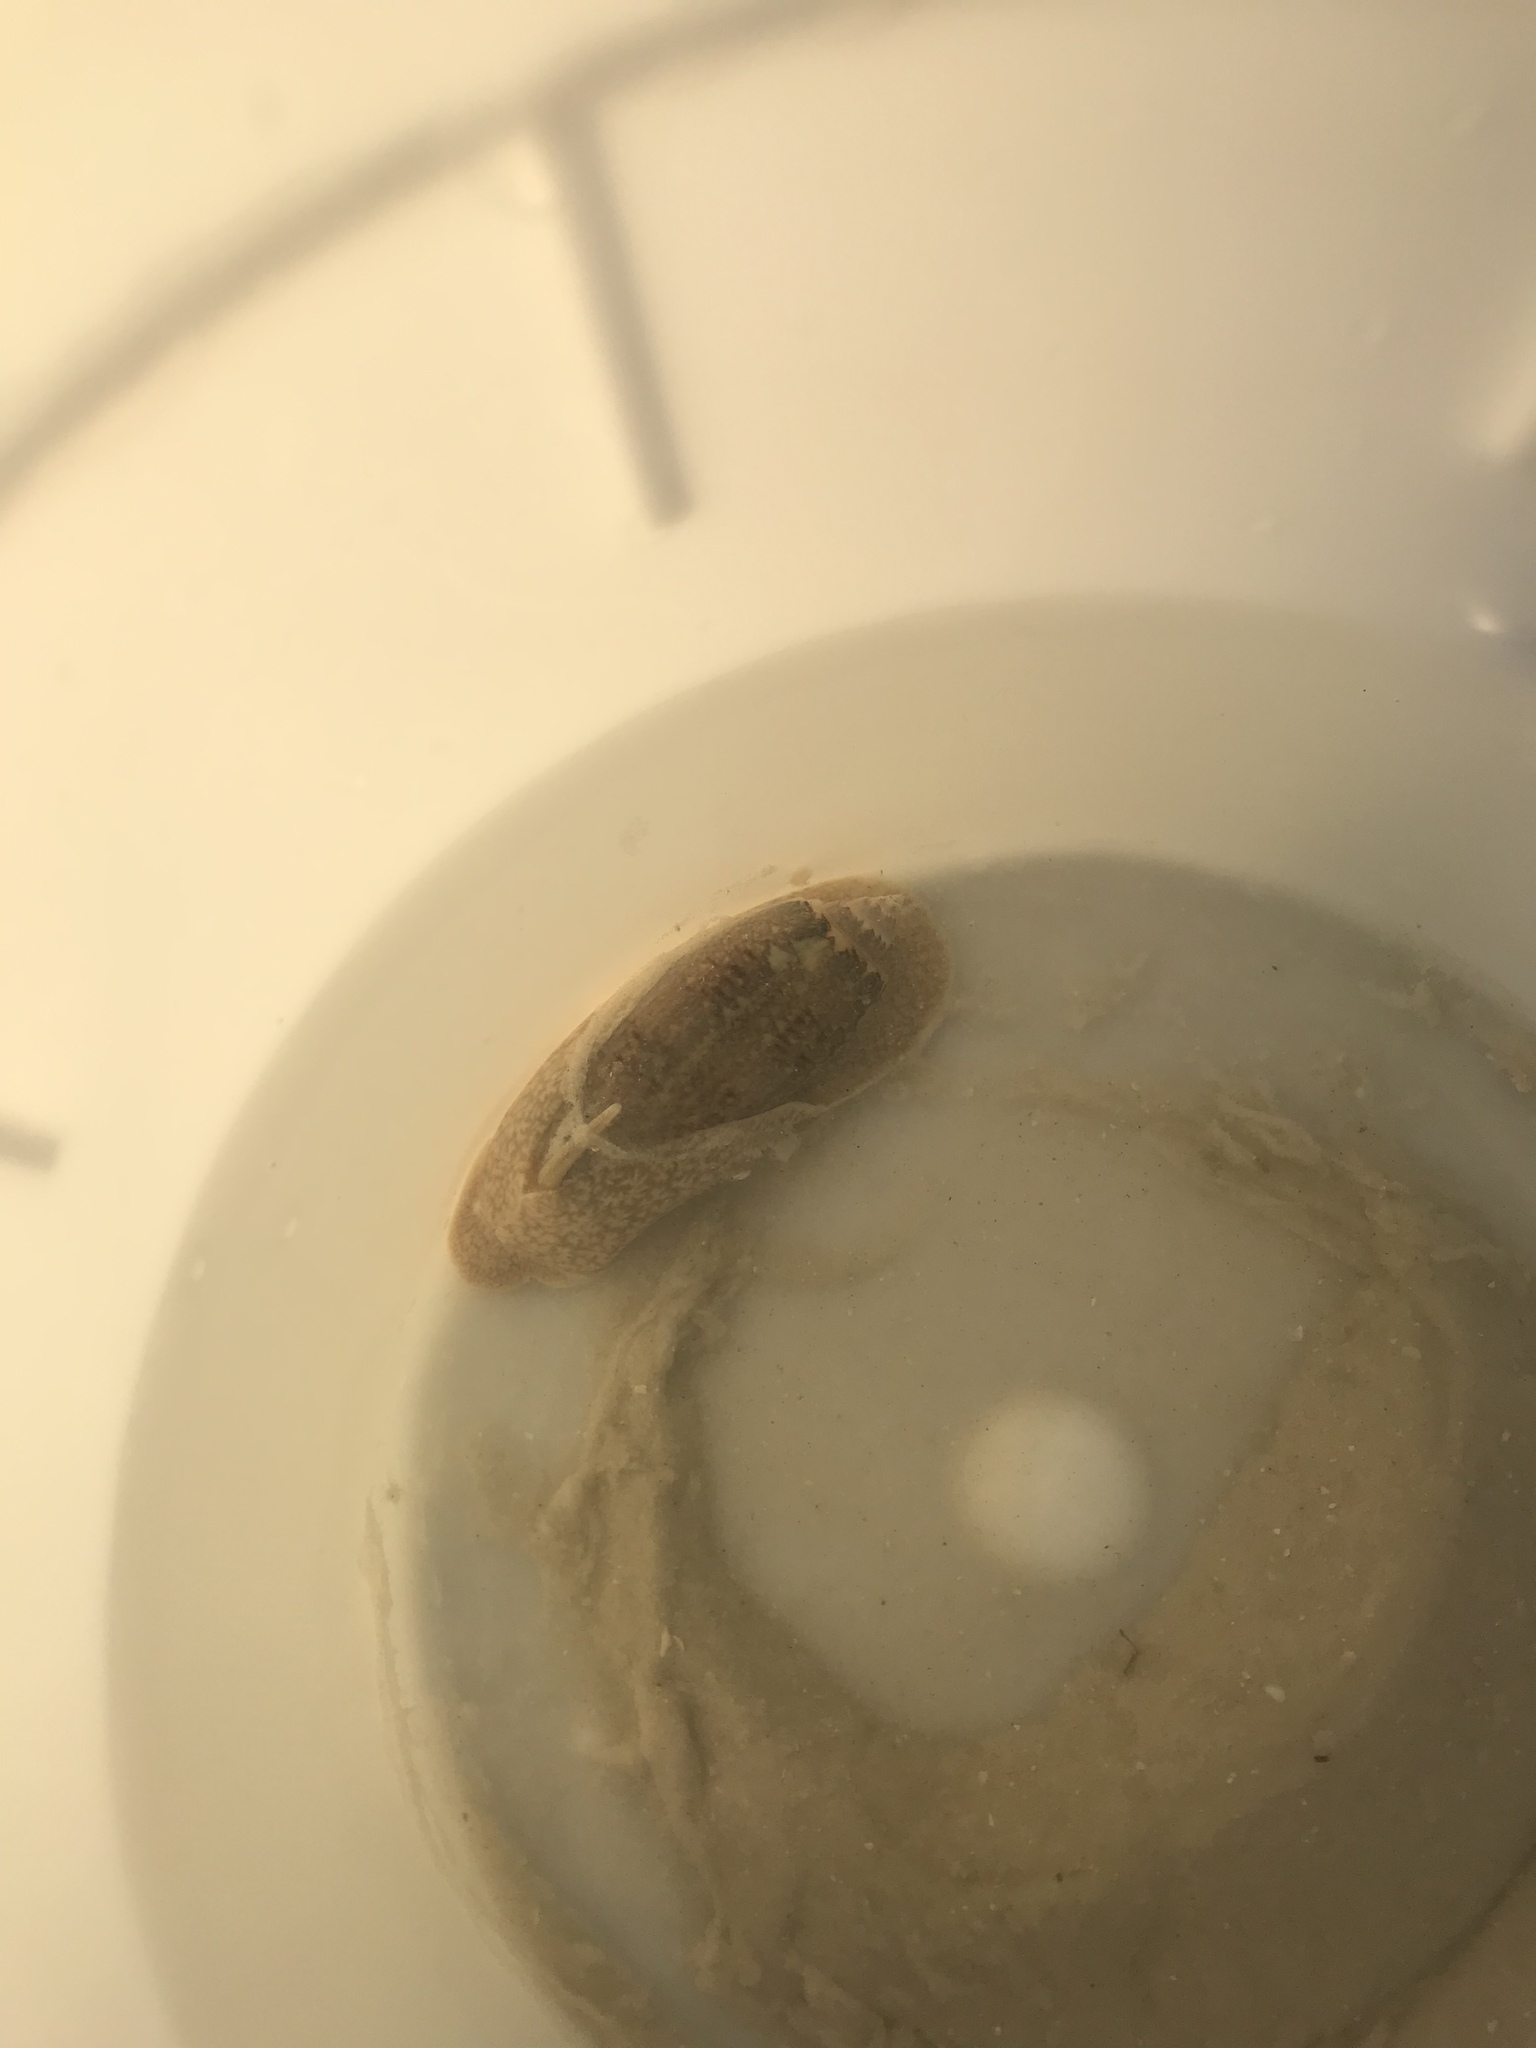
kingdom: Animalia
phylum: Mollusca
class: Gastropoda
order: Neogastropoda
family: Olividae
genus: Oliva
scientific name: Oliva sayana
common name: Lettered olive
